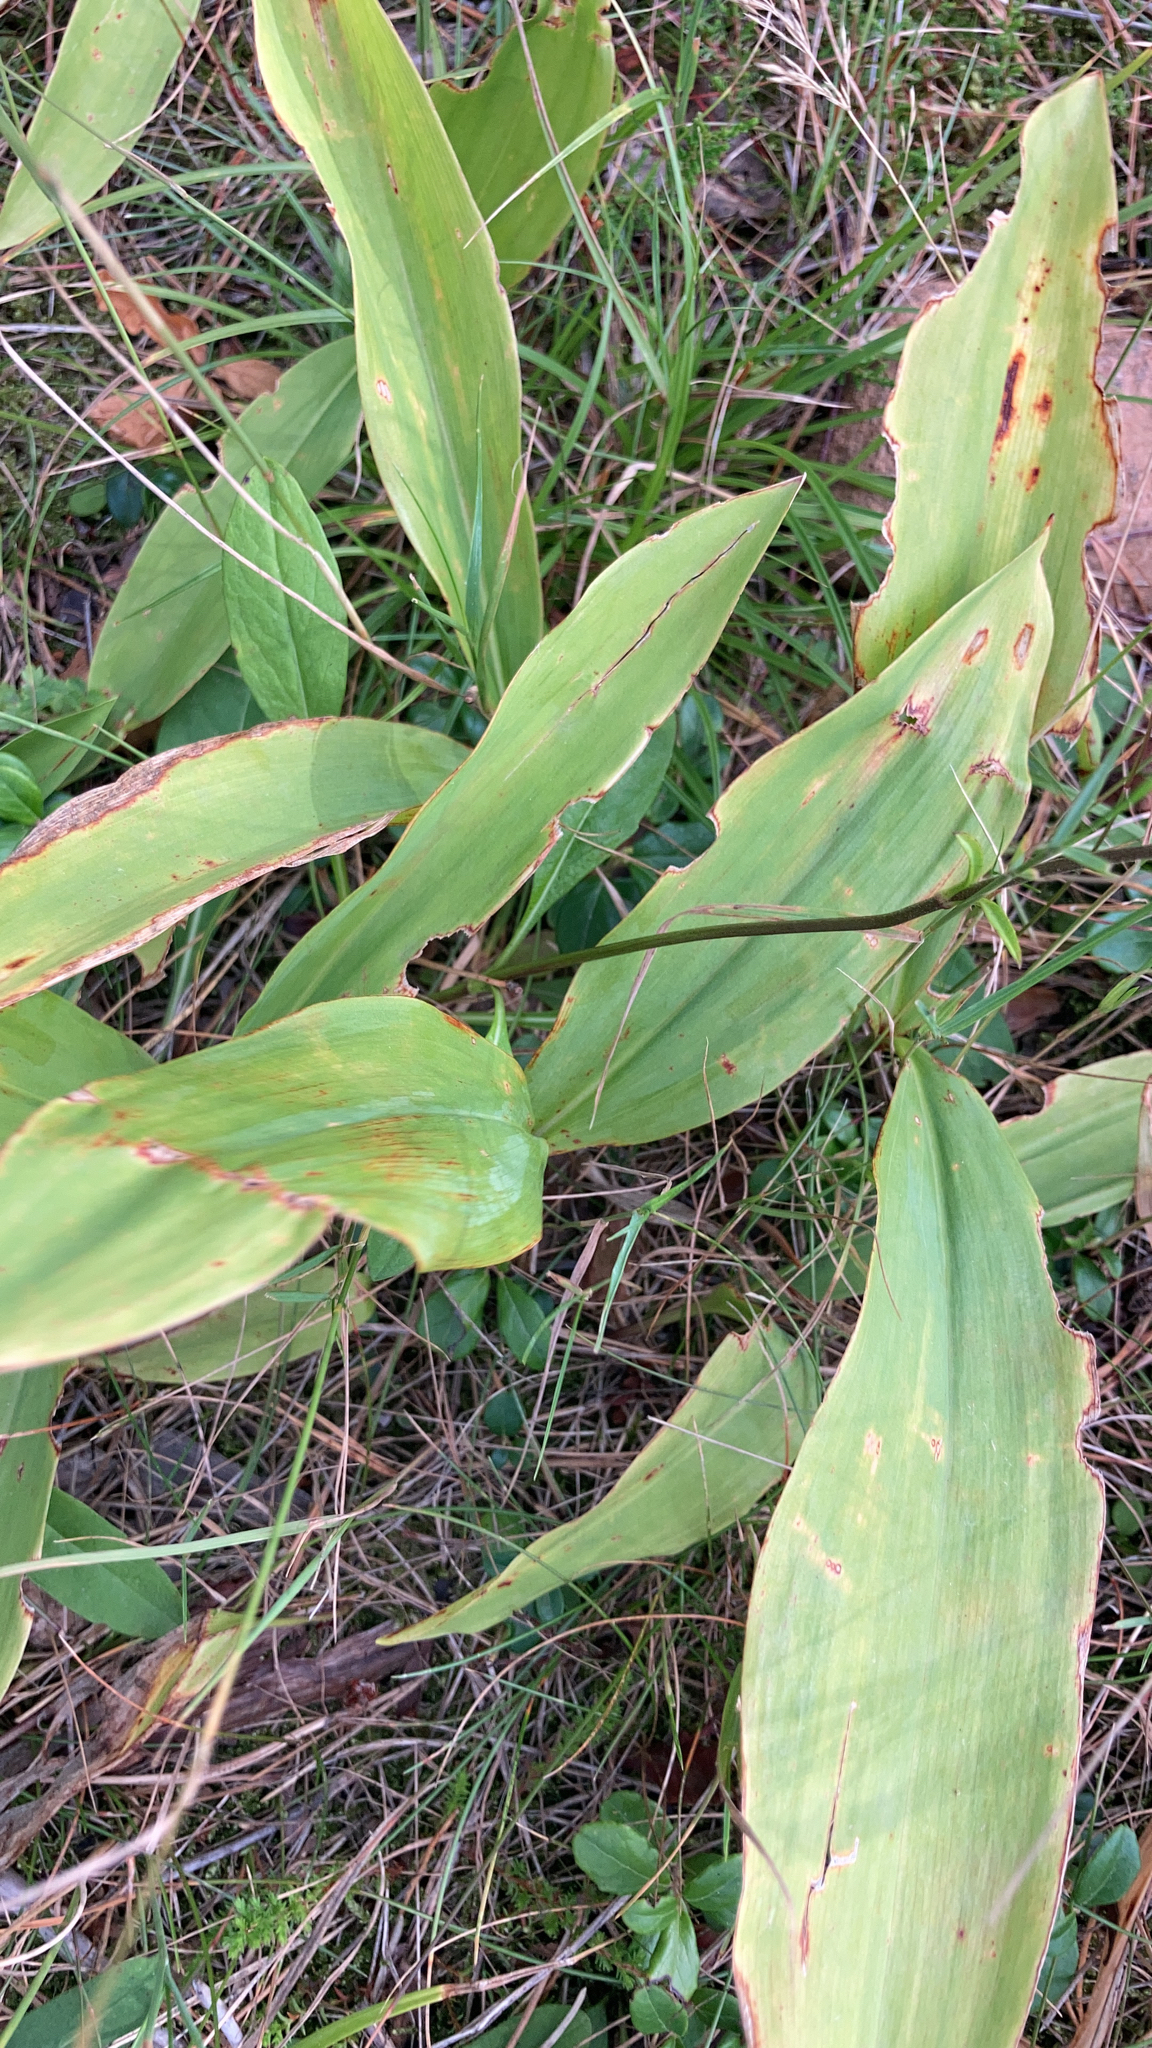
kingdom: Plantae
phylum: Tracheophyta
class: Liliopsida
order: Asparagales
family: Asparagaceae
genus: Convallaria
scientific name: Convallaria majalis
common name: Lily-of-the-valley
